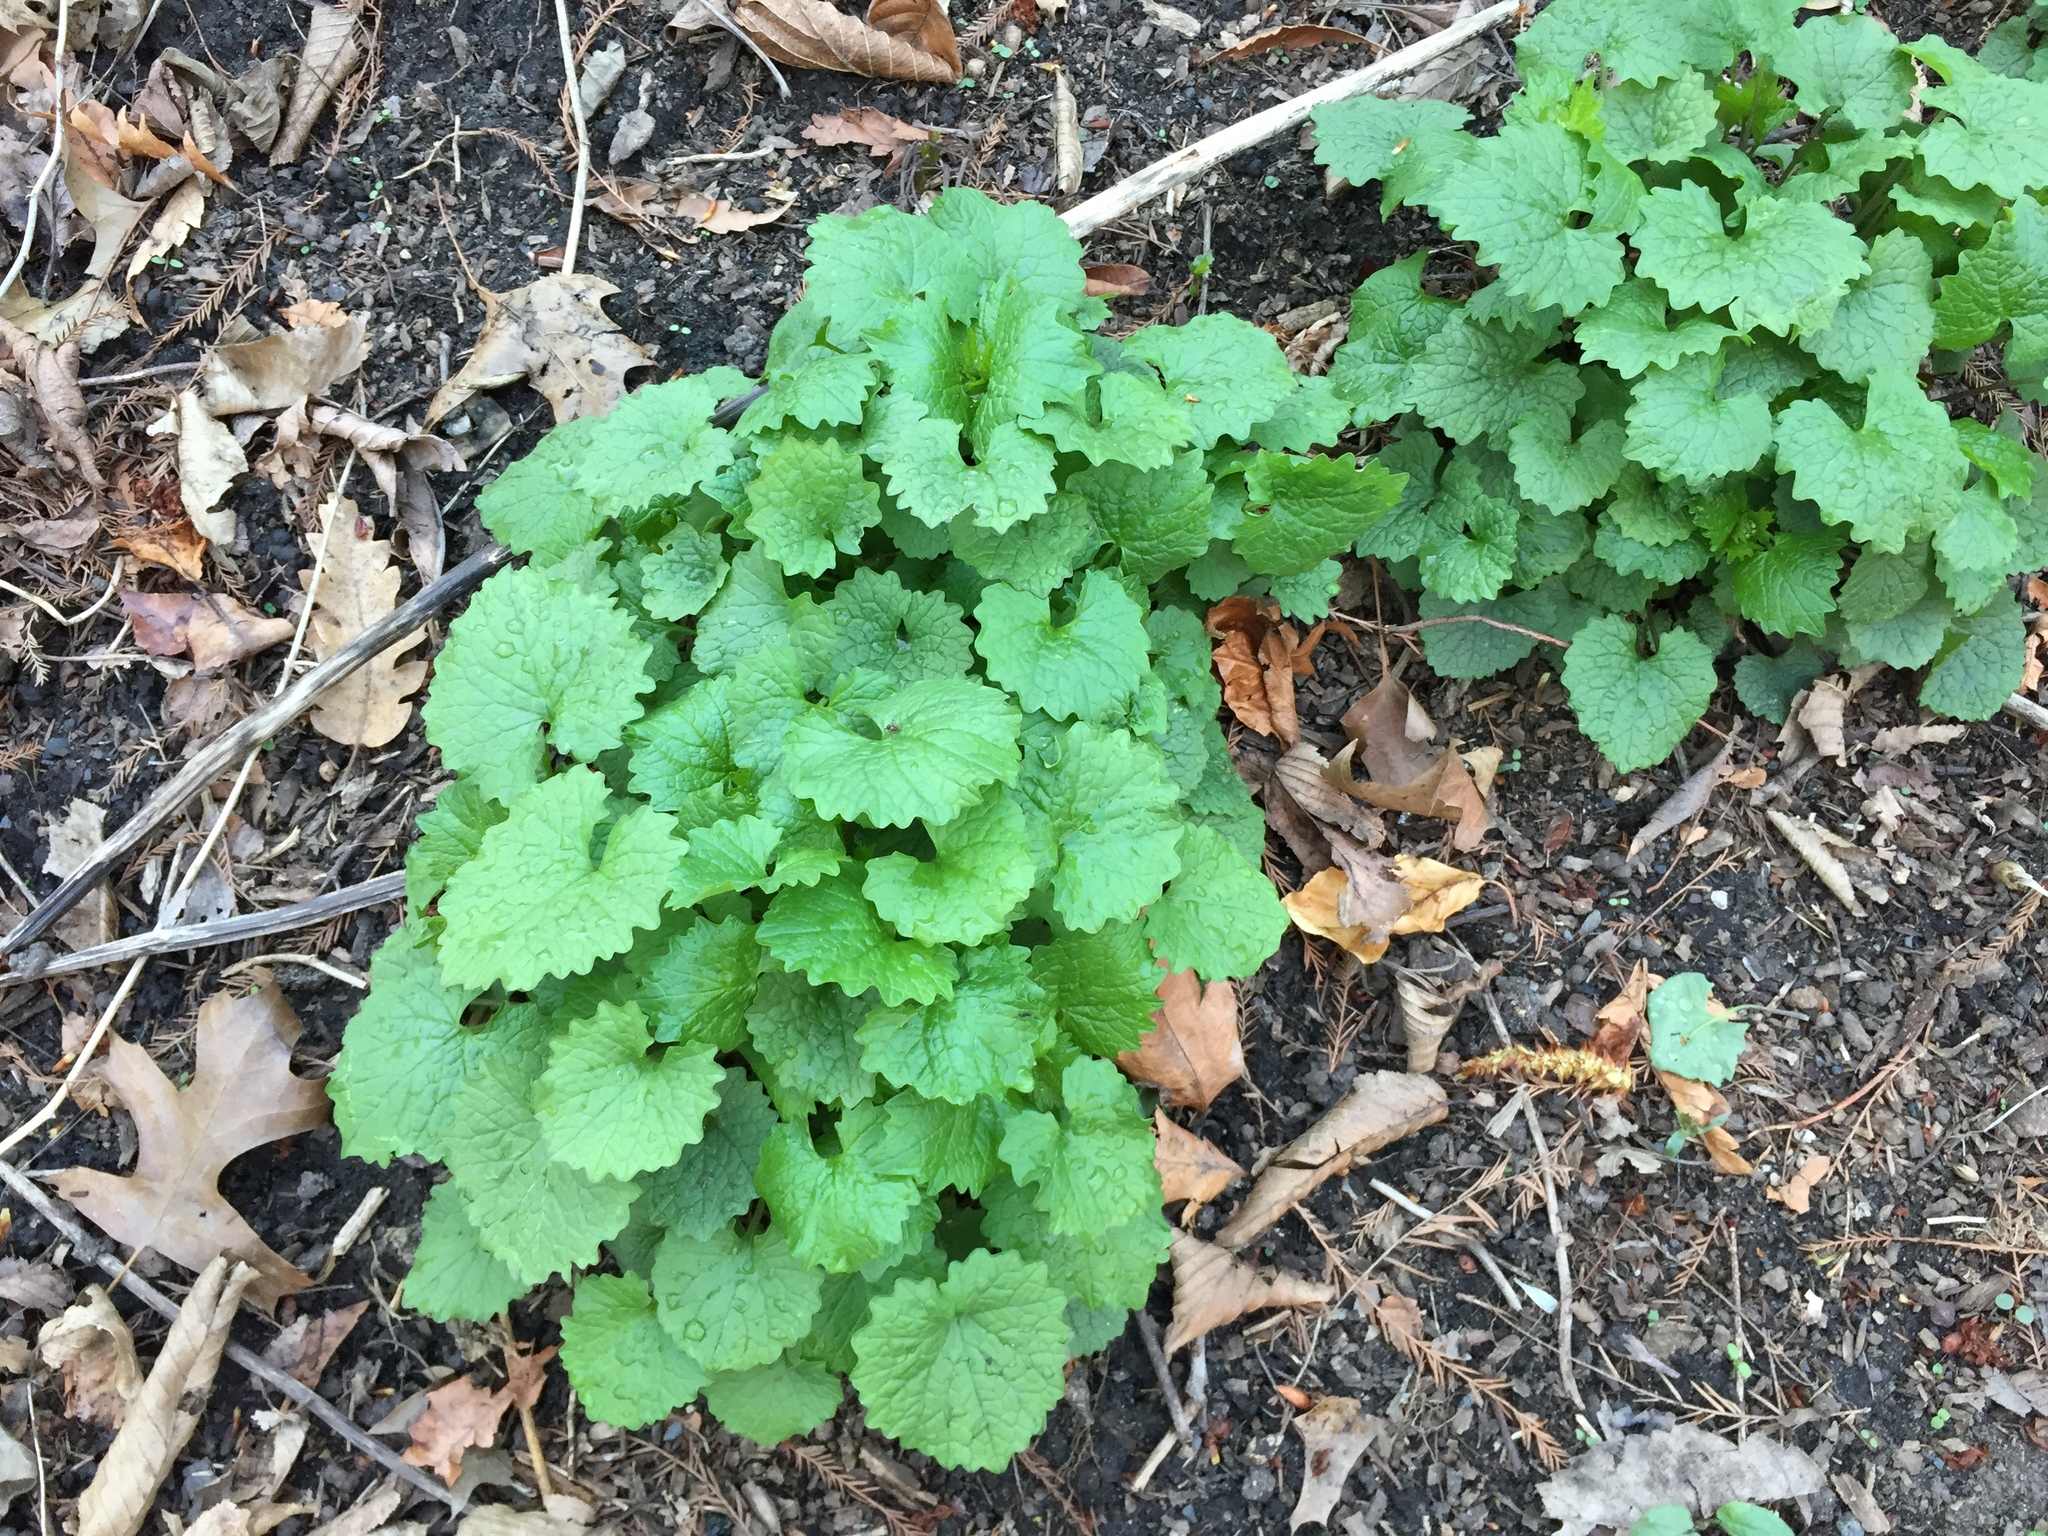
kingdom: Plantae
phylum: Tracheophyta
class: Magnoliopsida
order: Brassicales
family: Brassicaceae
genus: Alliaria
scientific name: Alliaria petiolata
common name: Garlic mustard
